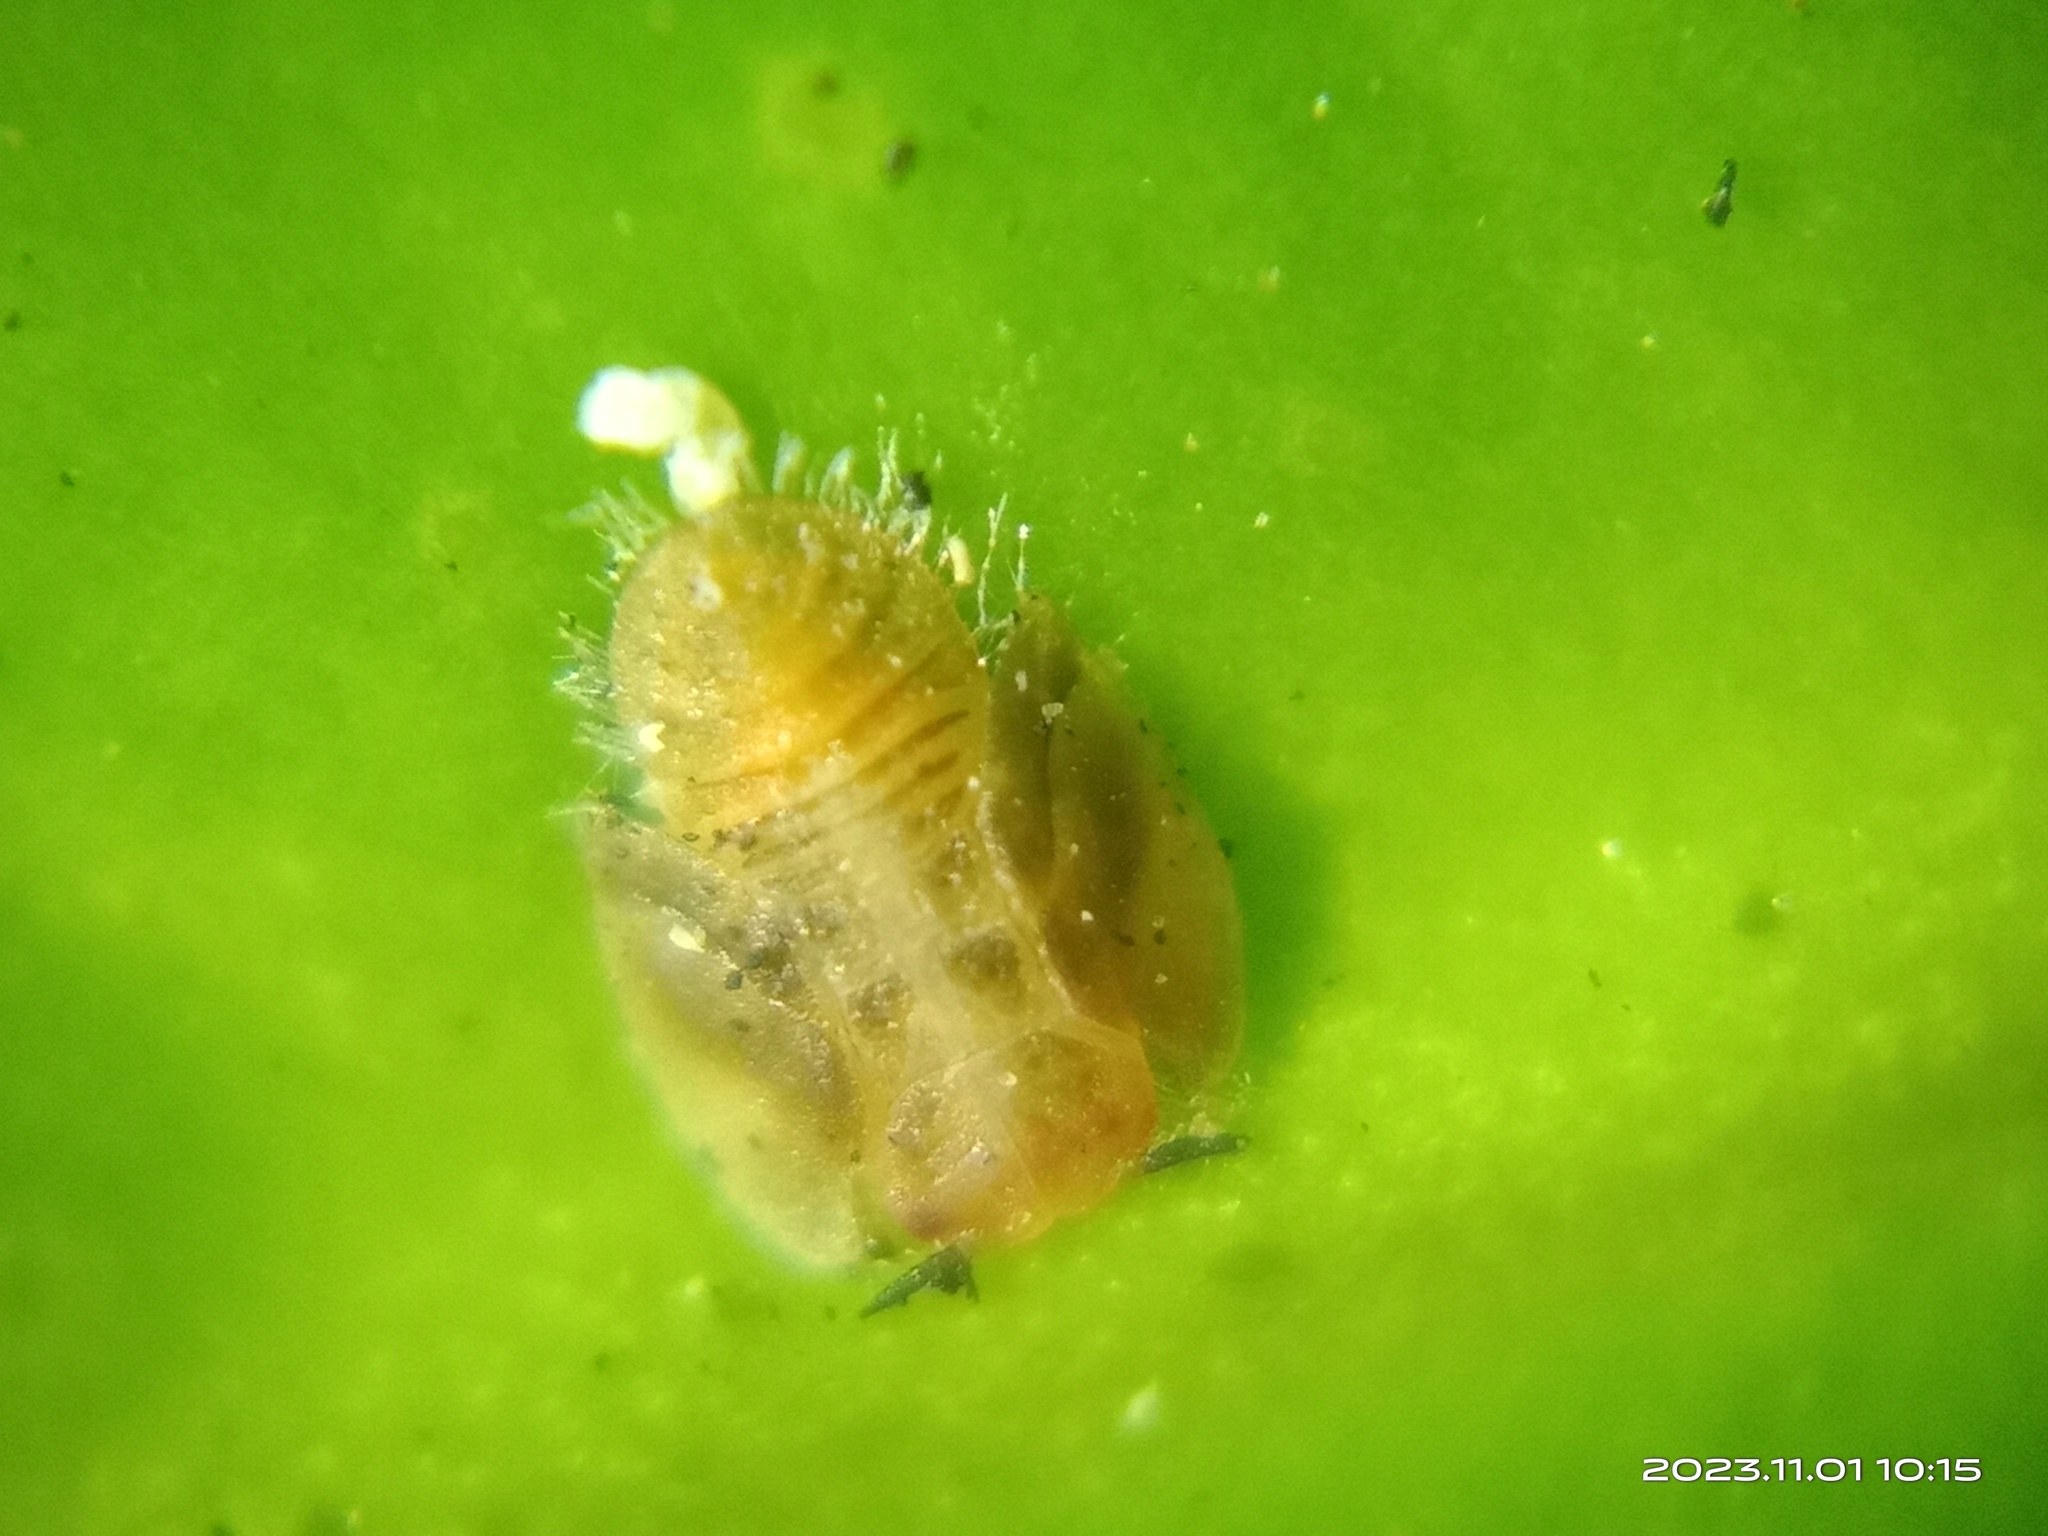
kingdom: Animalia
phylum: Arthropoda
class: Insecta
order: Hemiptera
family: Liviidae
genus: Diaphorina
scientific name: Diaphorina citri
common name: Asian citrus psyllid
